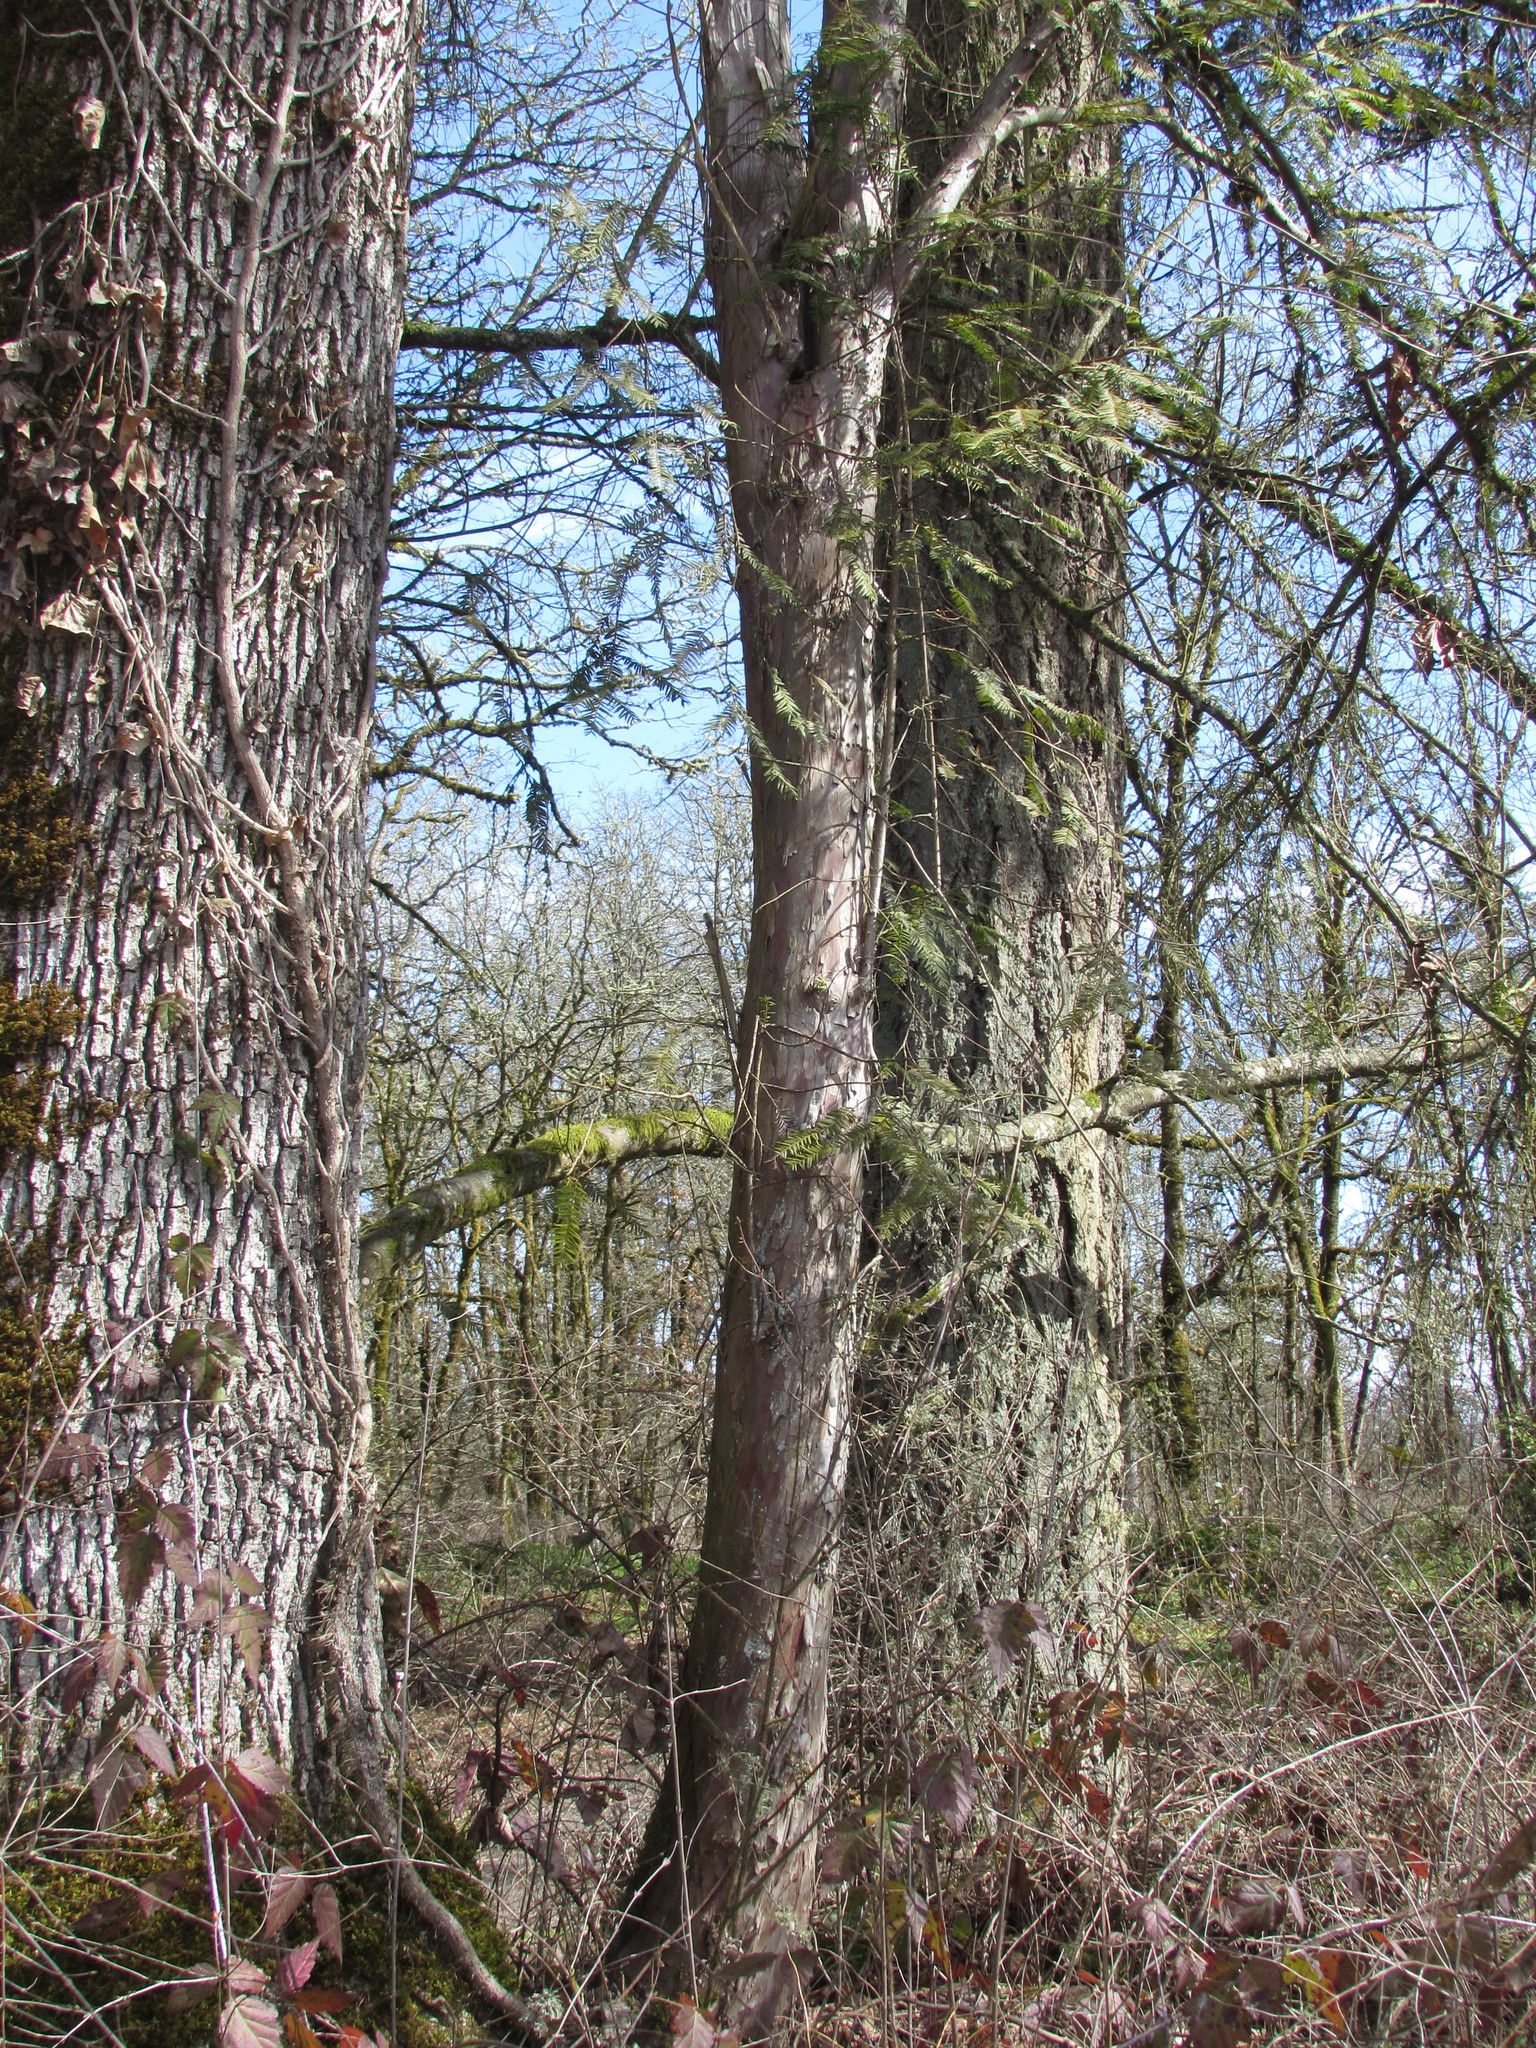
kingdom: Plantae
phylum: Tracheophyta
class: Pinopsida
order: Pinales
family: Taxaceae
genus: Taxus
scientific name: Taxus brevifolia
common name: Pacific yew
